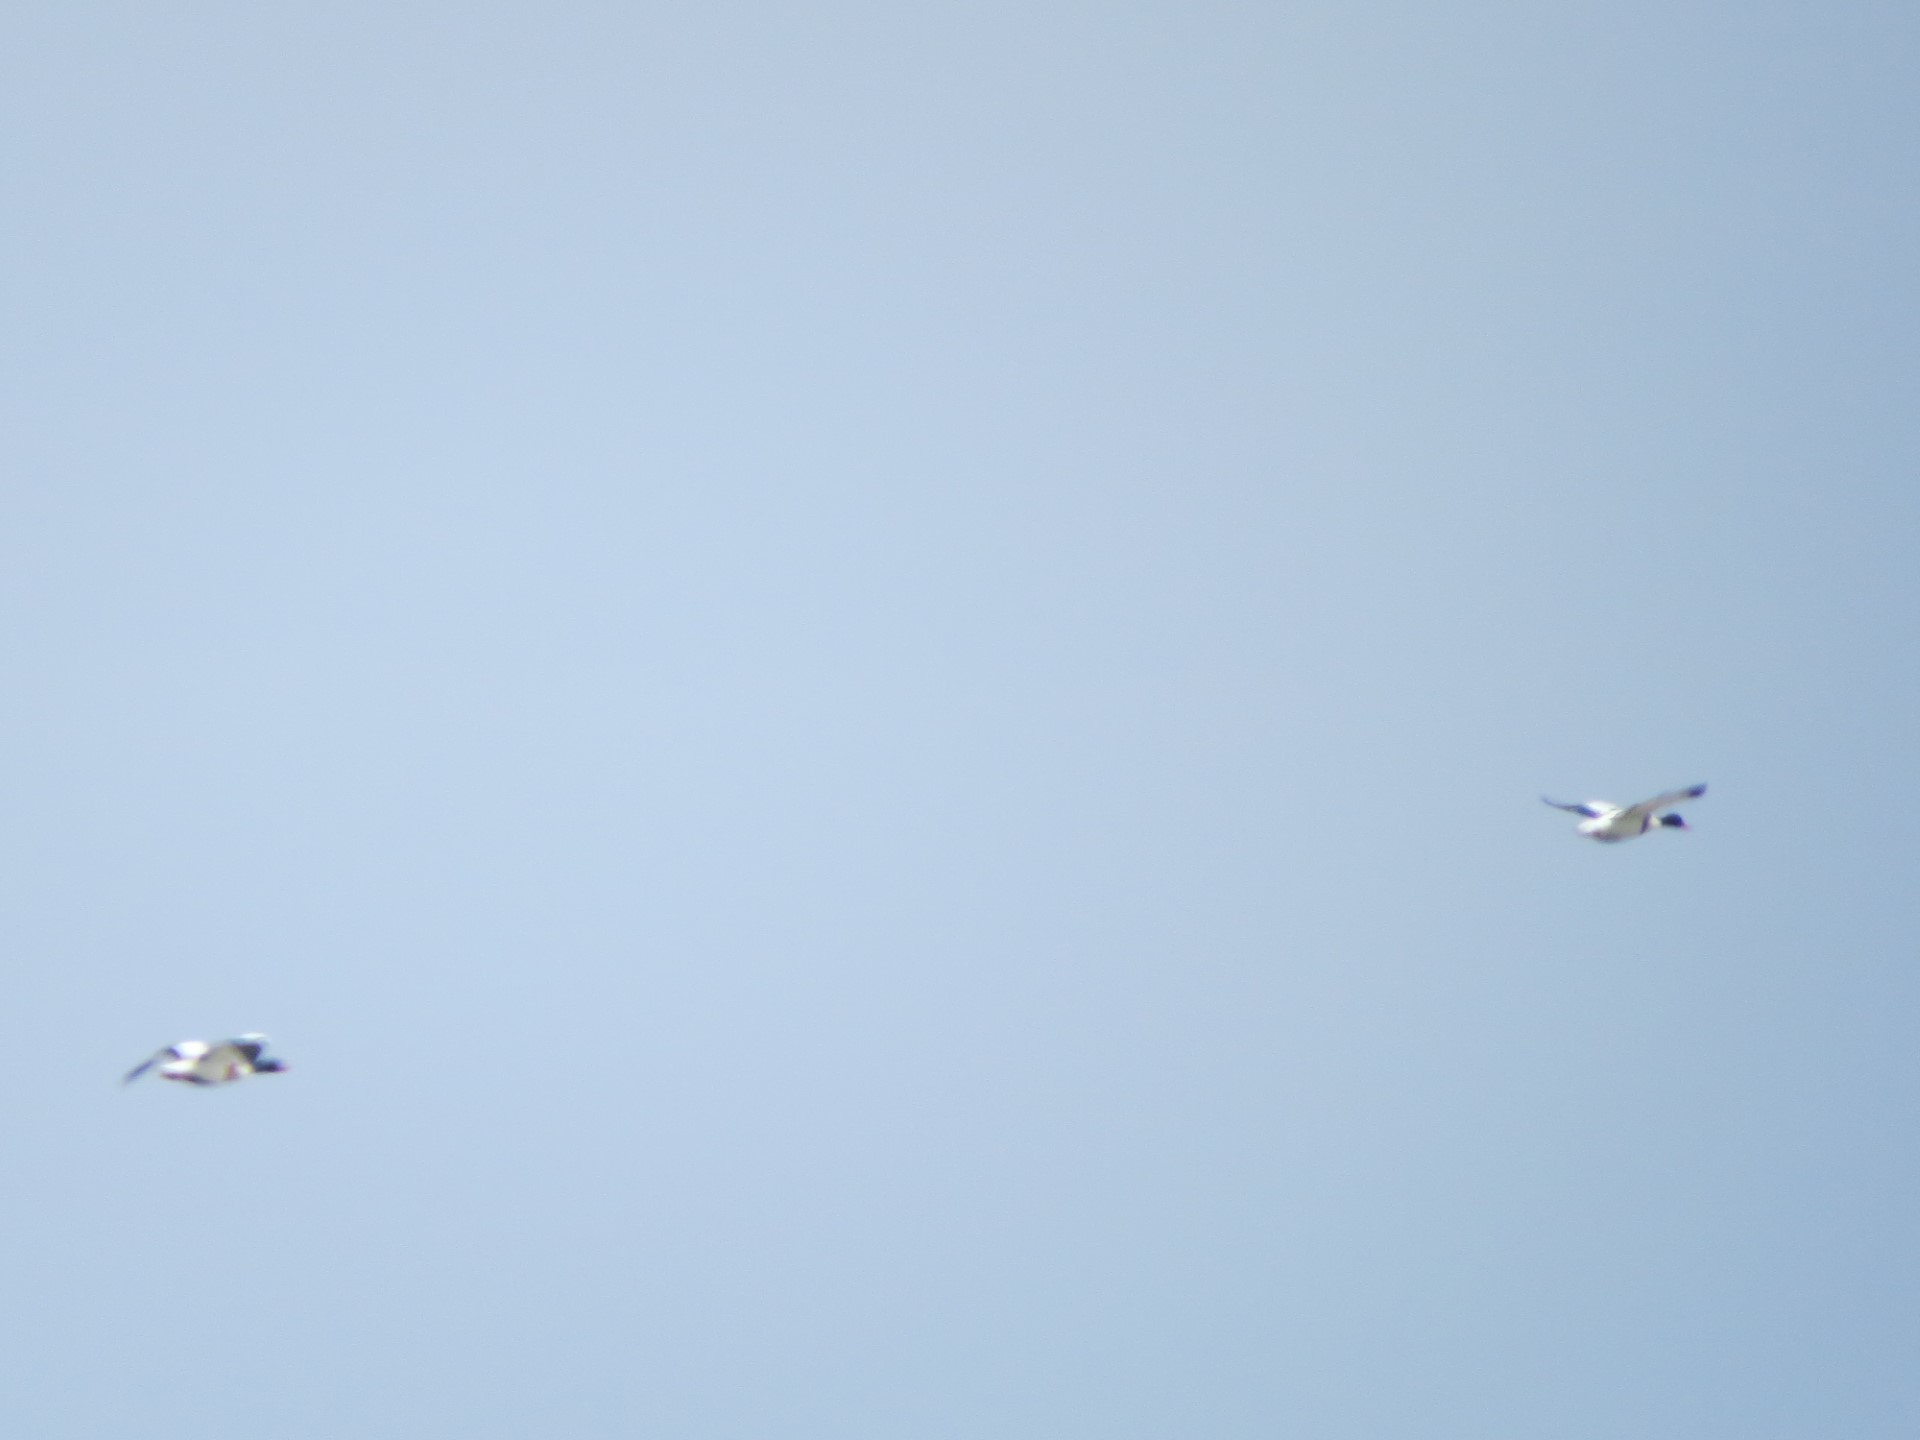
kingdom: Animalia
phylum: Chordata
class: Aves
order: Anseriformes
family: Anatidae
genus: Tadorna
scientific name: Tadorna tadorna
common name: Common shelduck
